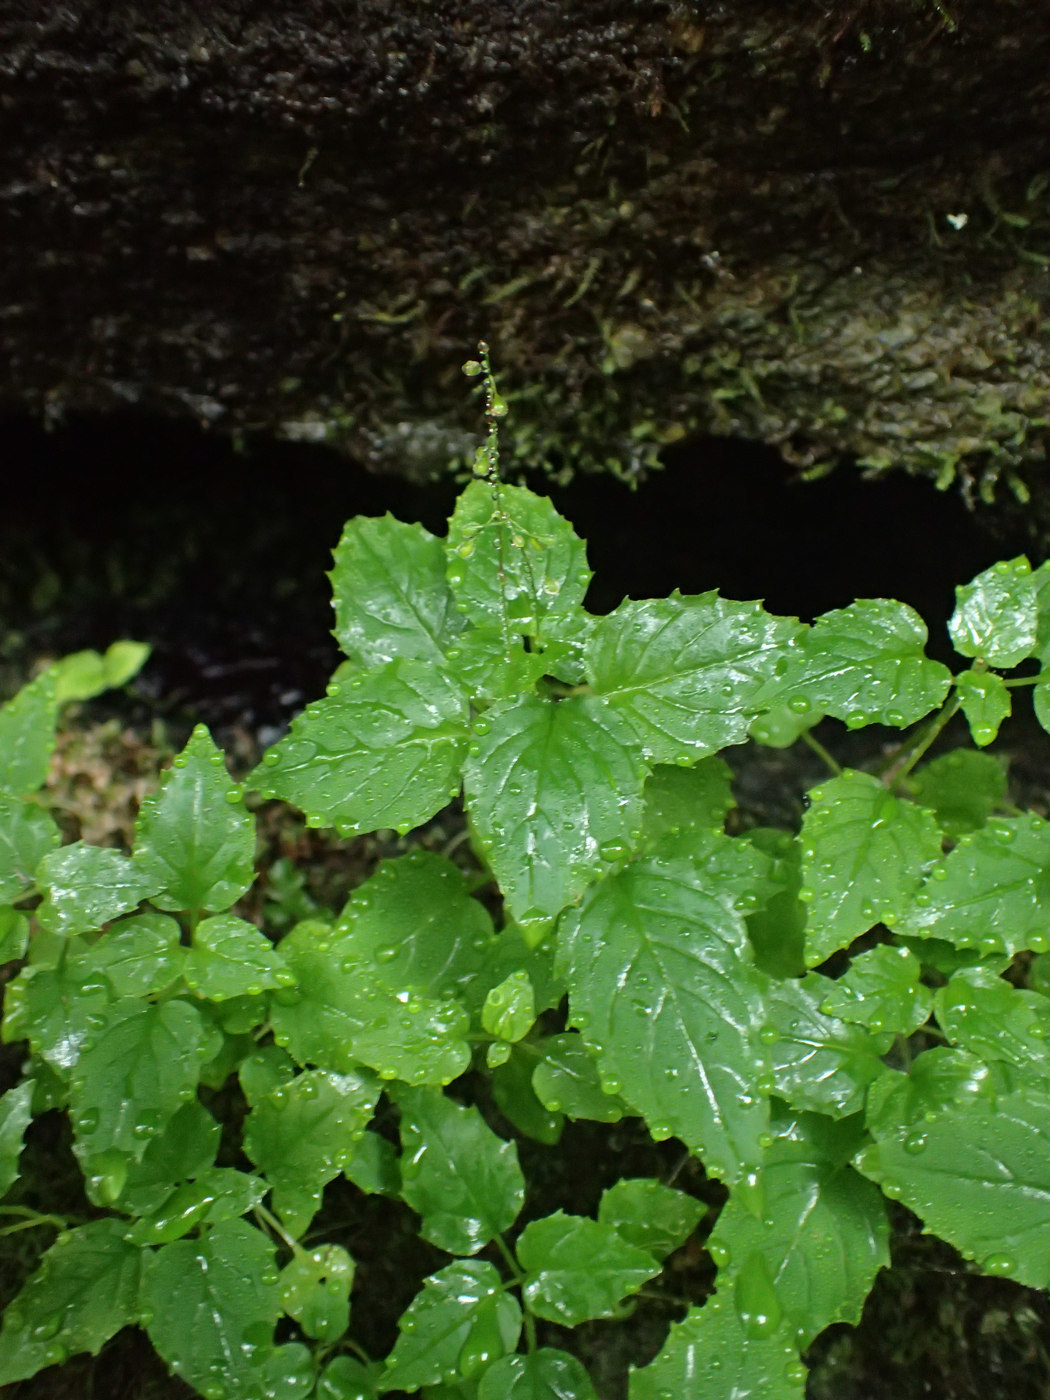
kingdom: Plantae
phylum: Tracheophyta
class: Magnoliopsida
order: Myrtales
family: Onagraceae
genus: Circaea
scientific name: Circaea alpina
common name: Alpine enchanter's-nightshade
